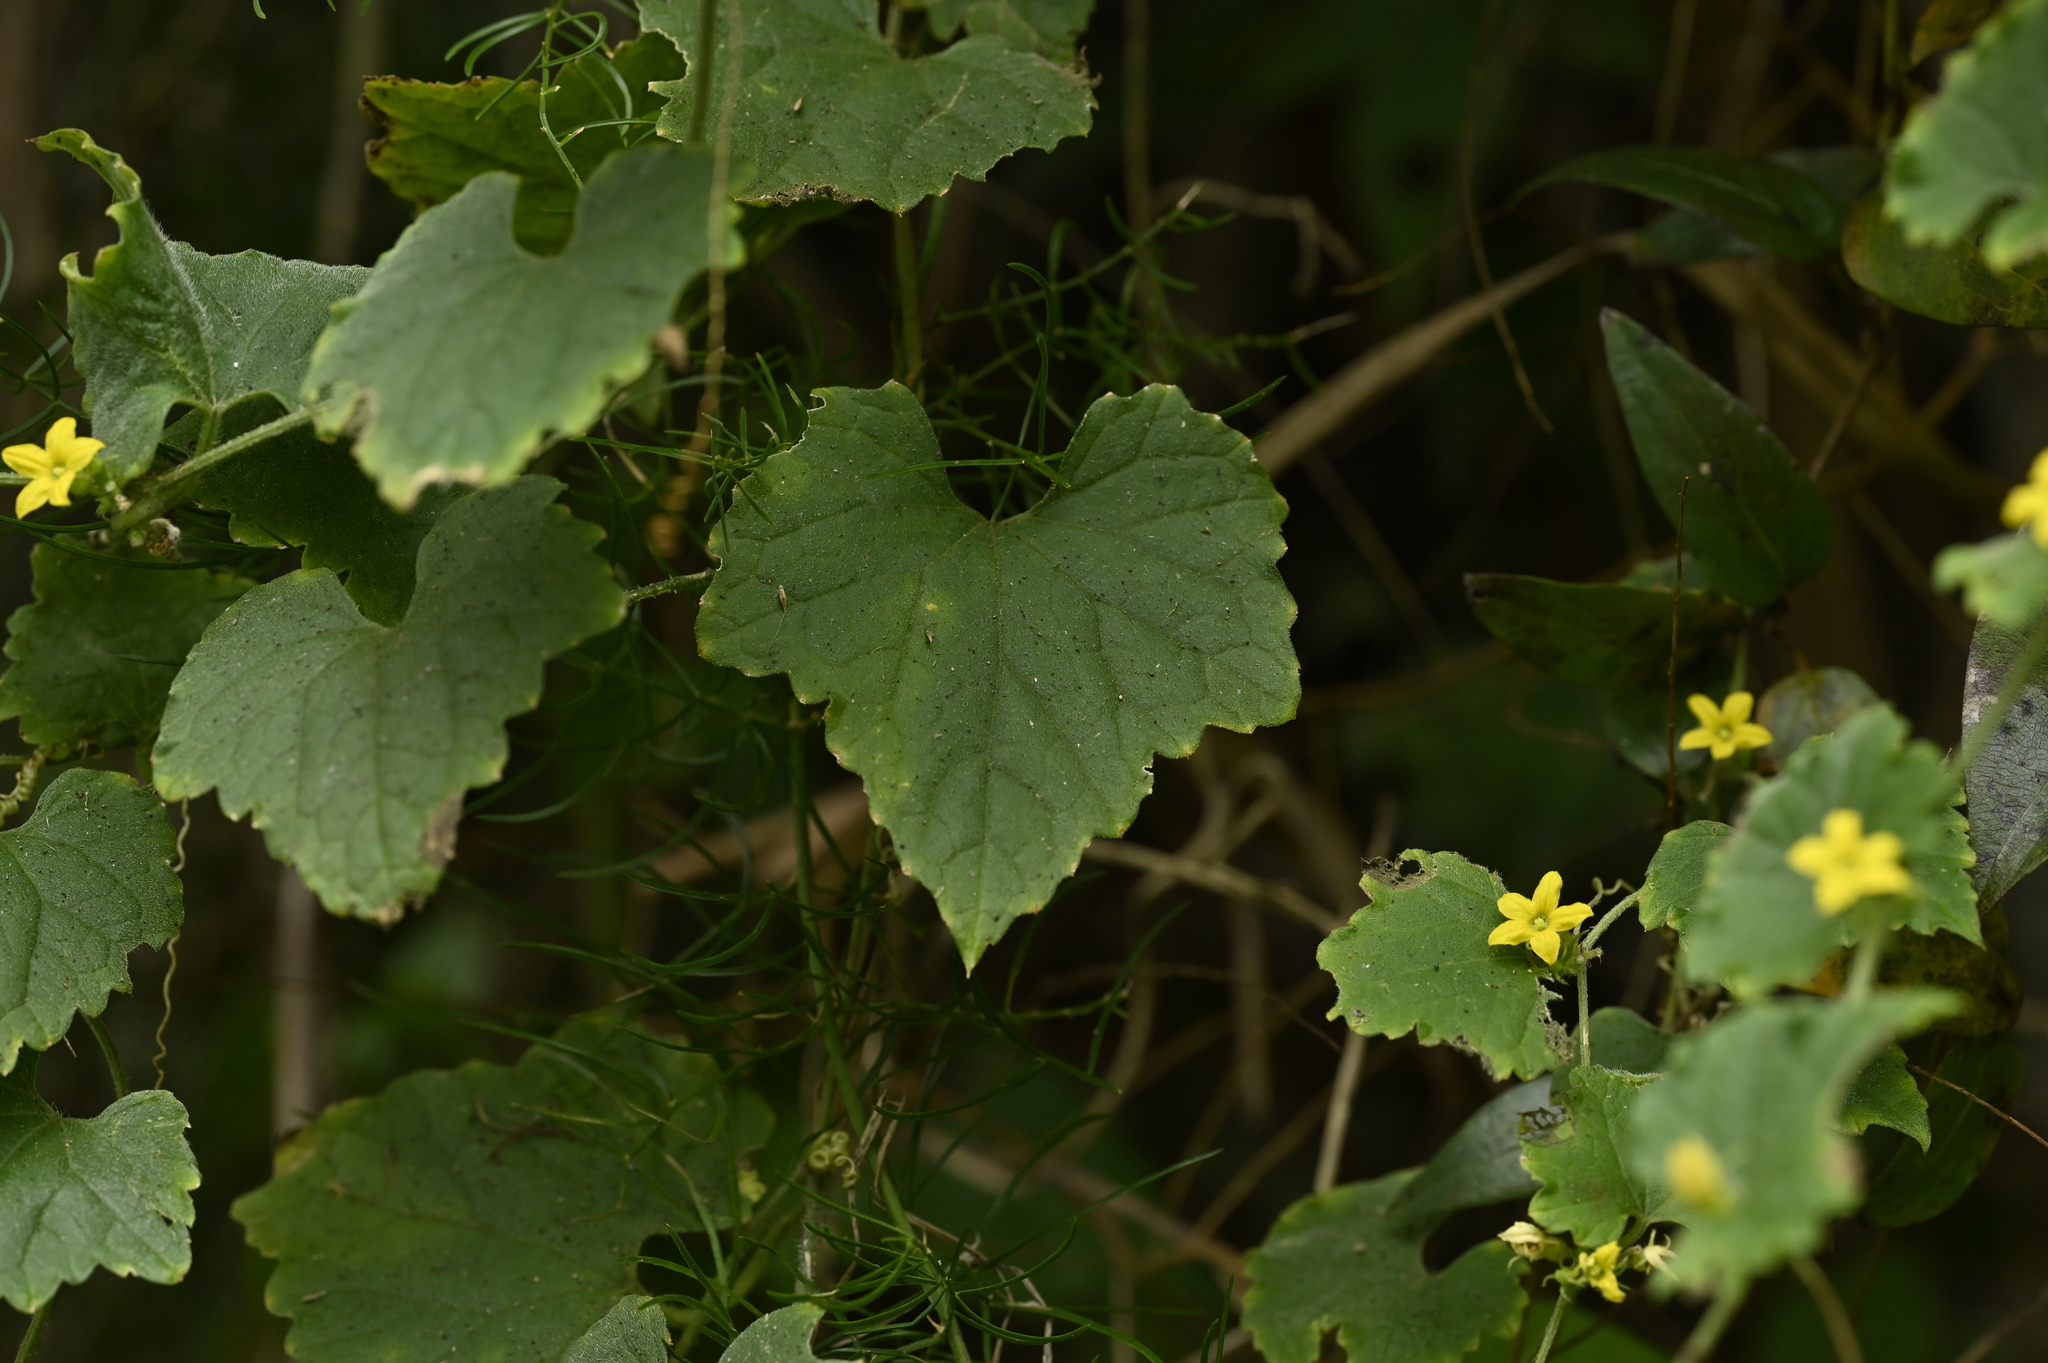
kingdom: Plantae
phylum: Tracheophyta
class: Magnoliopsida
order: Cucurbitales
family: Cucurbitaceae
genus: Cucumis
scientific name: Cucumis maderaspatanus
